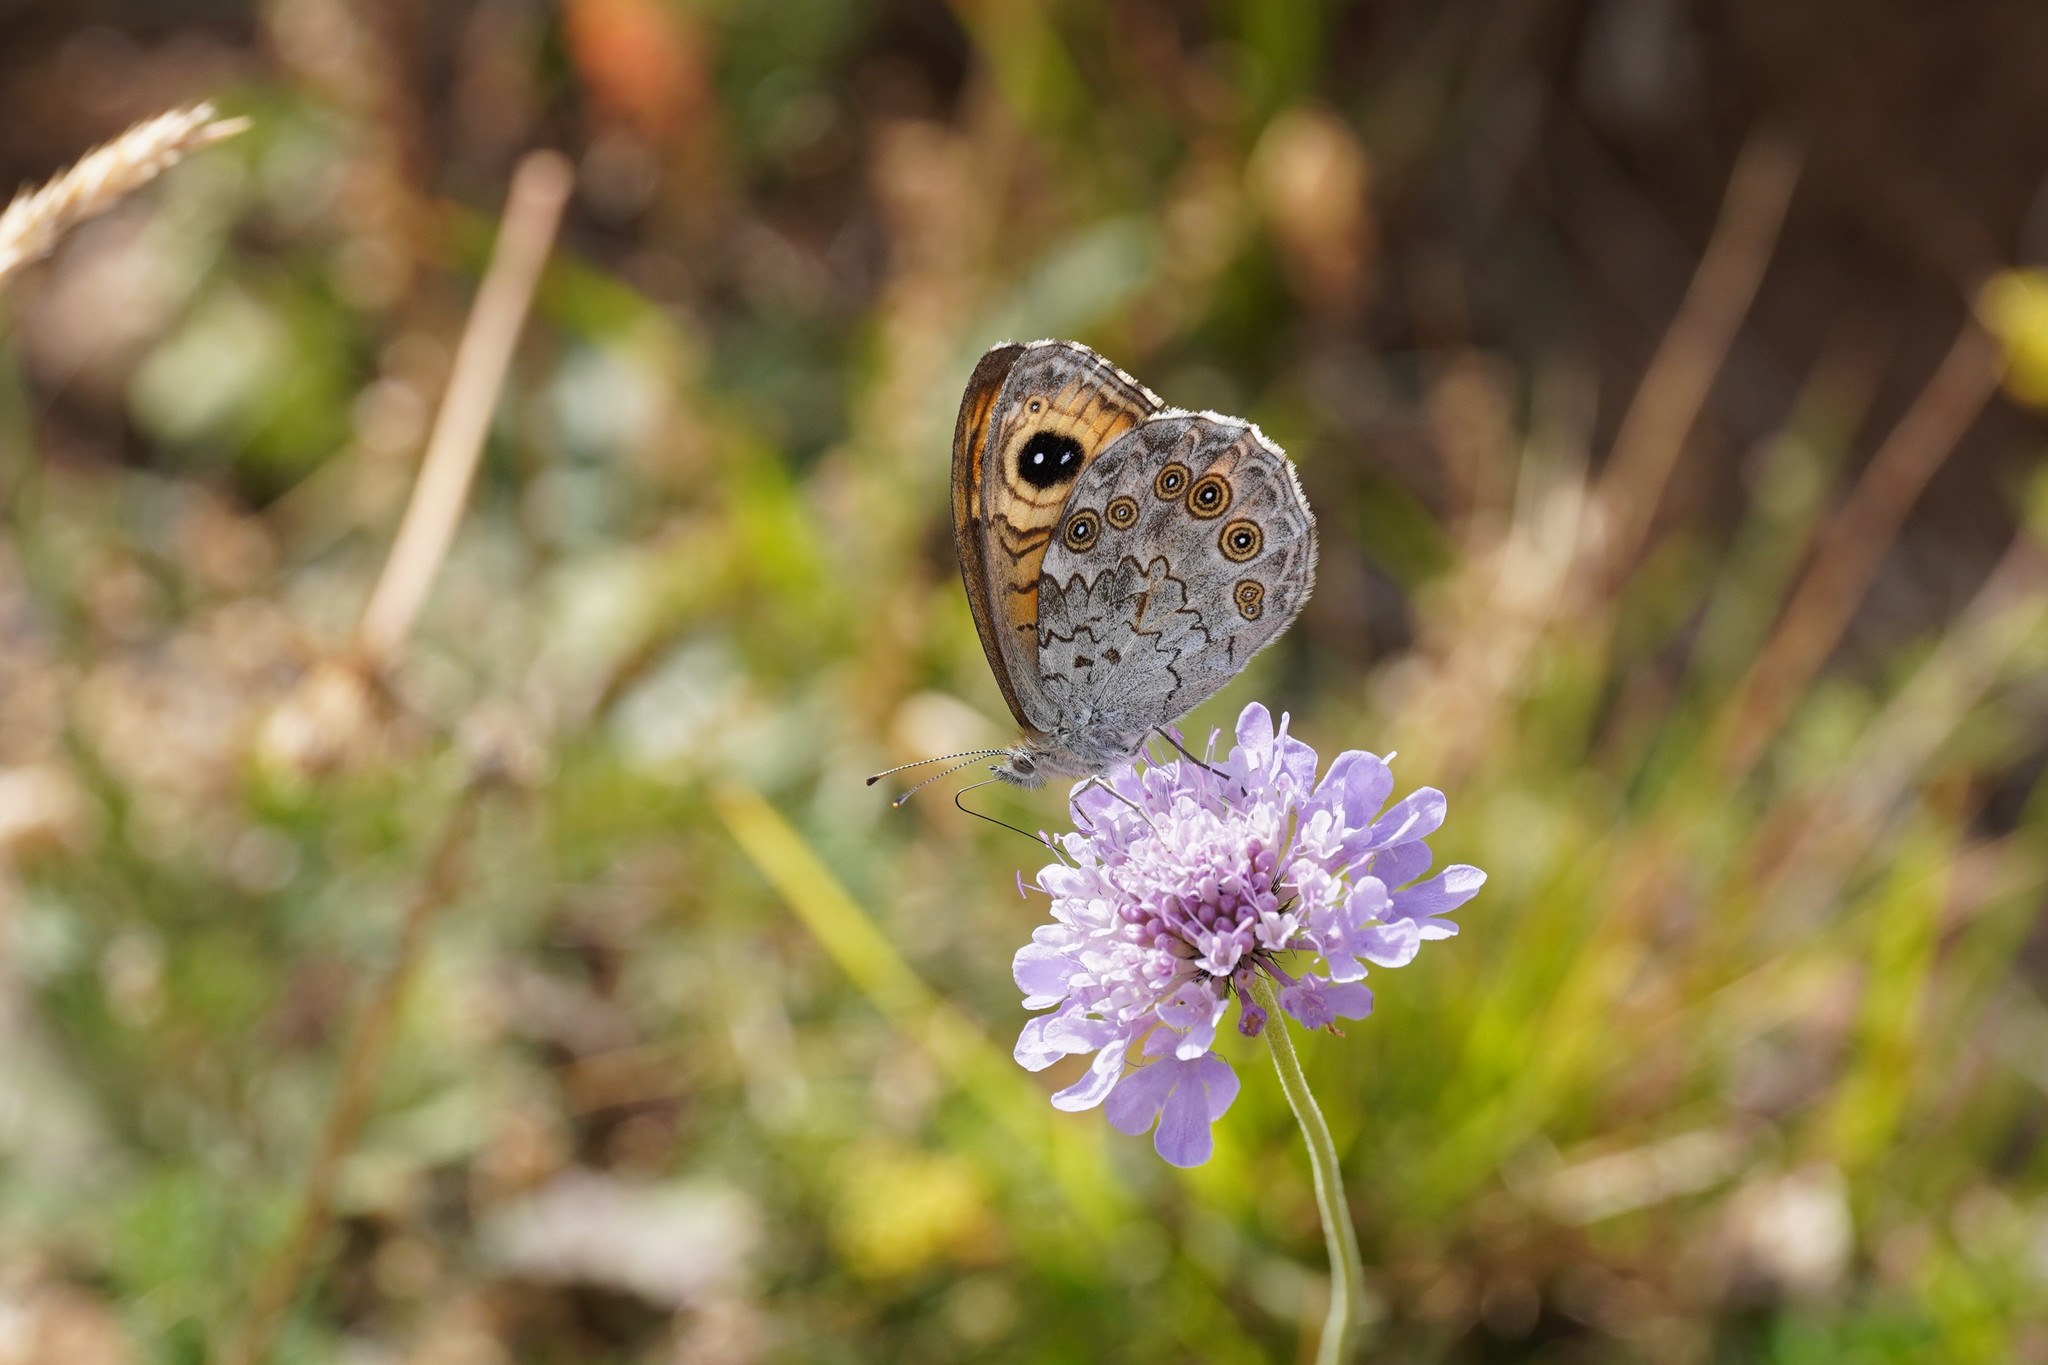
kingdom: Animalia
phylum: Arthropoda
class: Insecta
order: Lepidoptera
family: Nymphalidae
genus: Pararge
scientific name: Pararge Lasiommata maera
